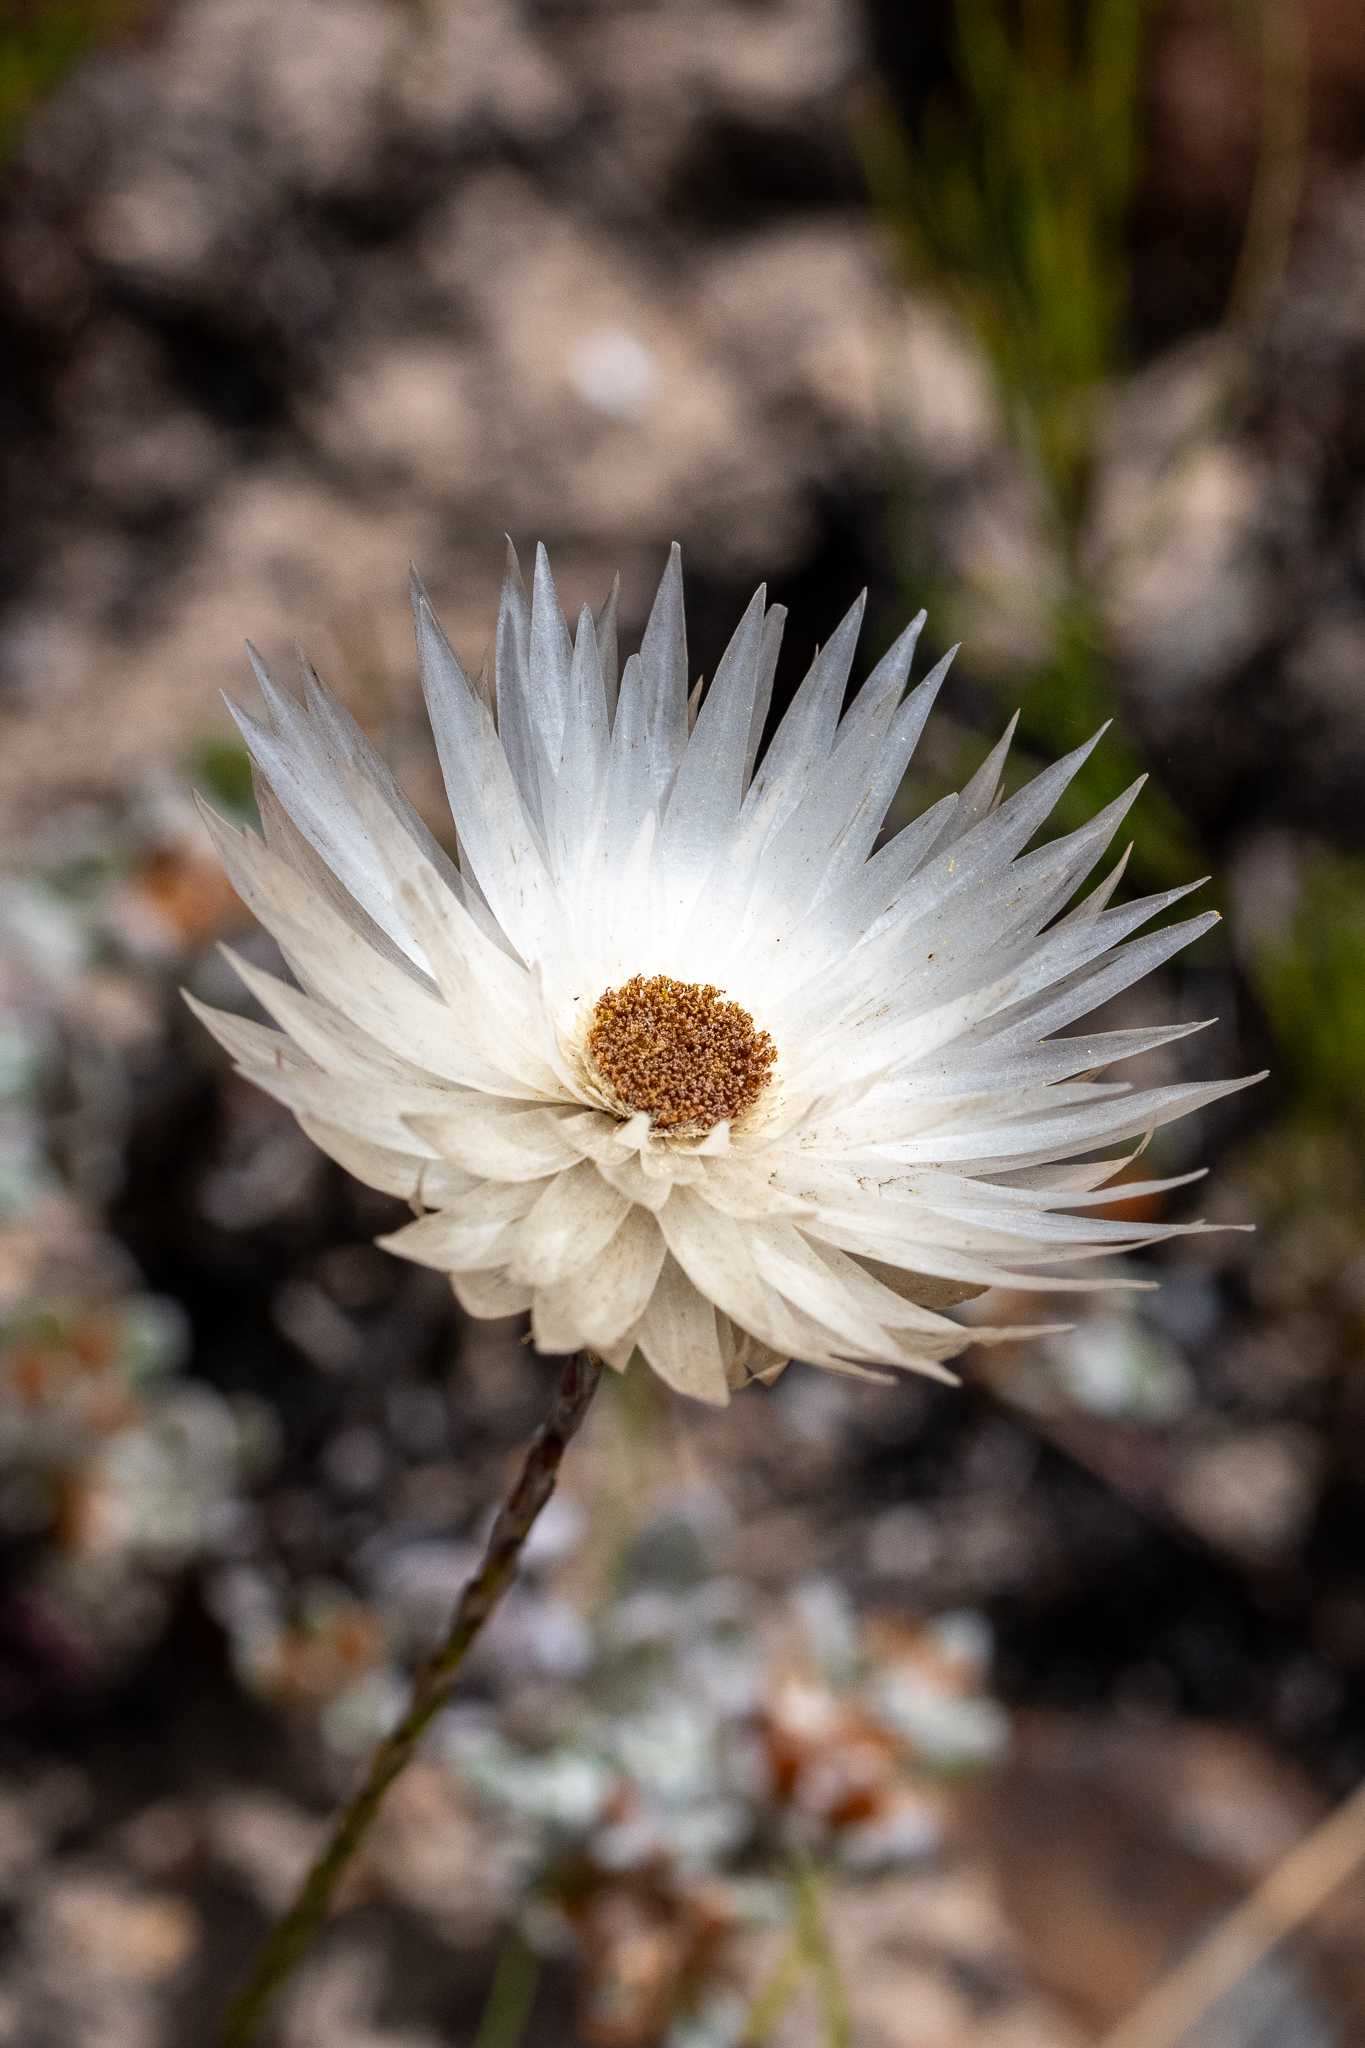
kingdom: Plantae
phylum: Tracheophyta
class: Magnoliopsida
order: Asterales
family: Asteraceae
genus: Edmondia
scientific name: Edmondia sesamoides
